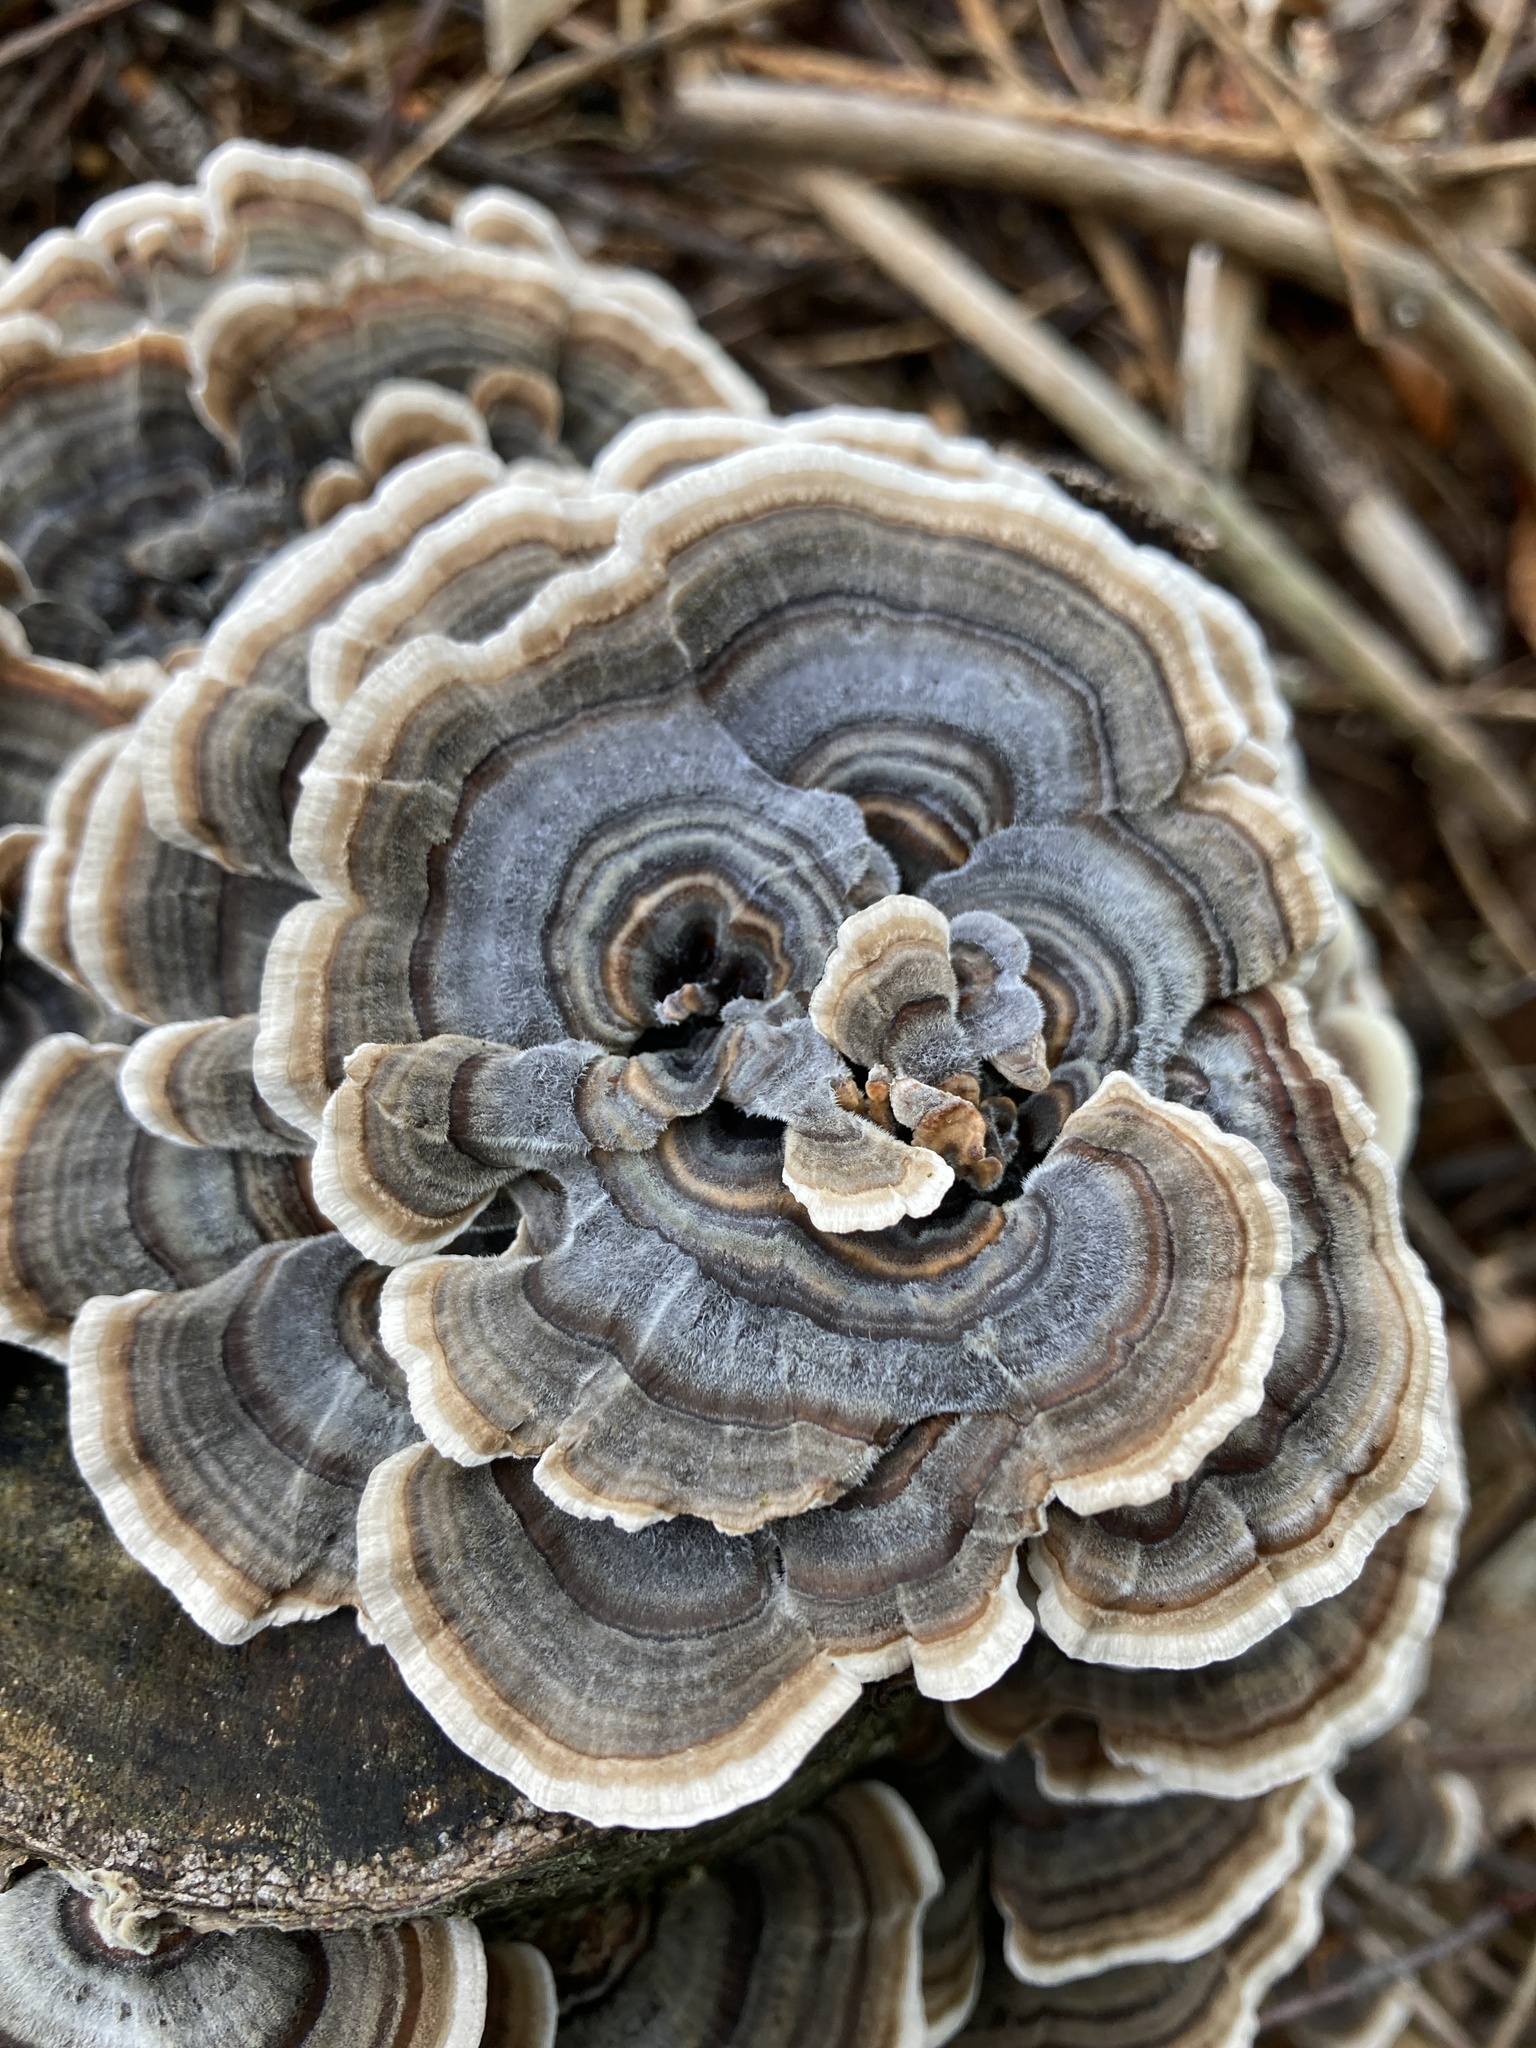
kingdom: Fungi
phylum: Basidiomycota
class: Agaricomycetes
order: Polyporales
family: Polyporaceae
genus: Trametes
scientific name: Trametes versicolor
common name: Turkeytail
